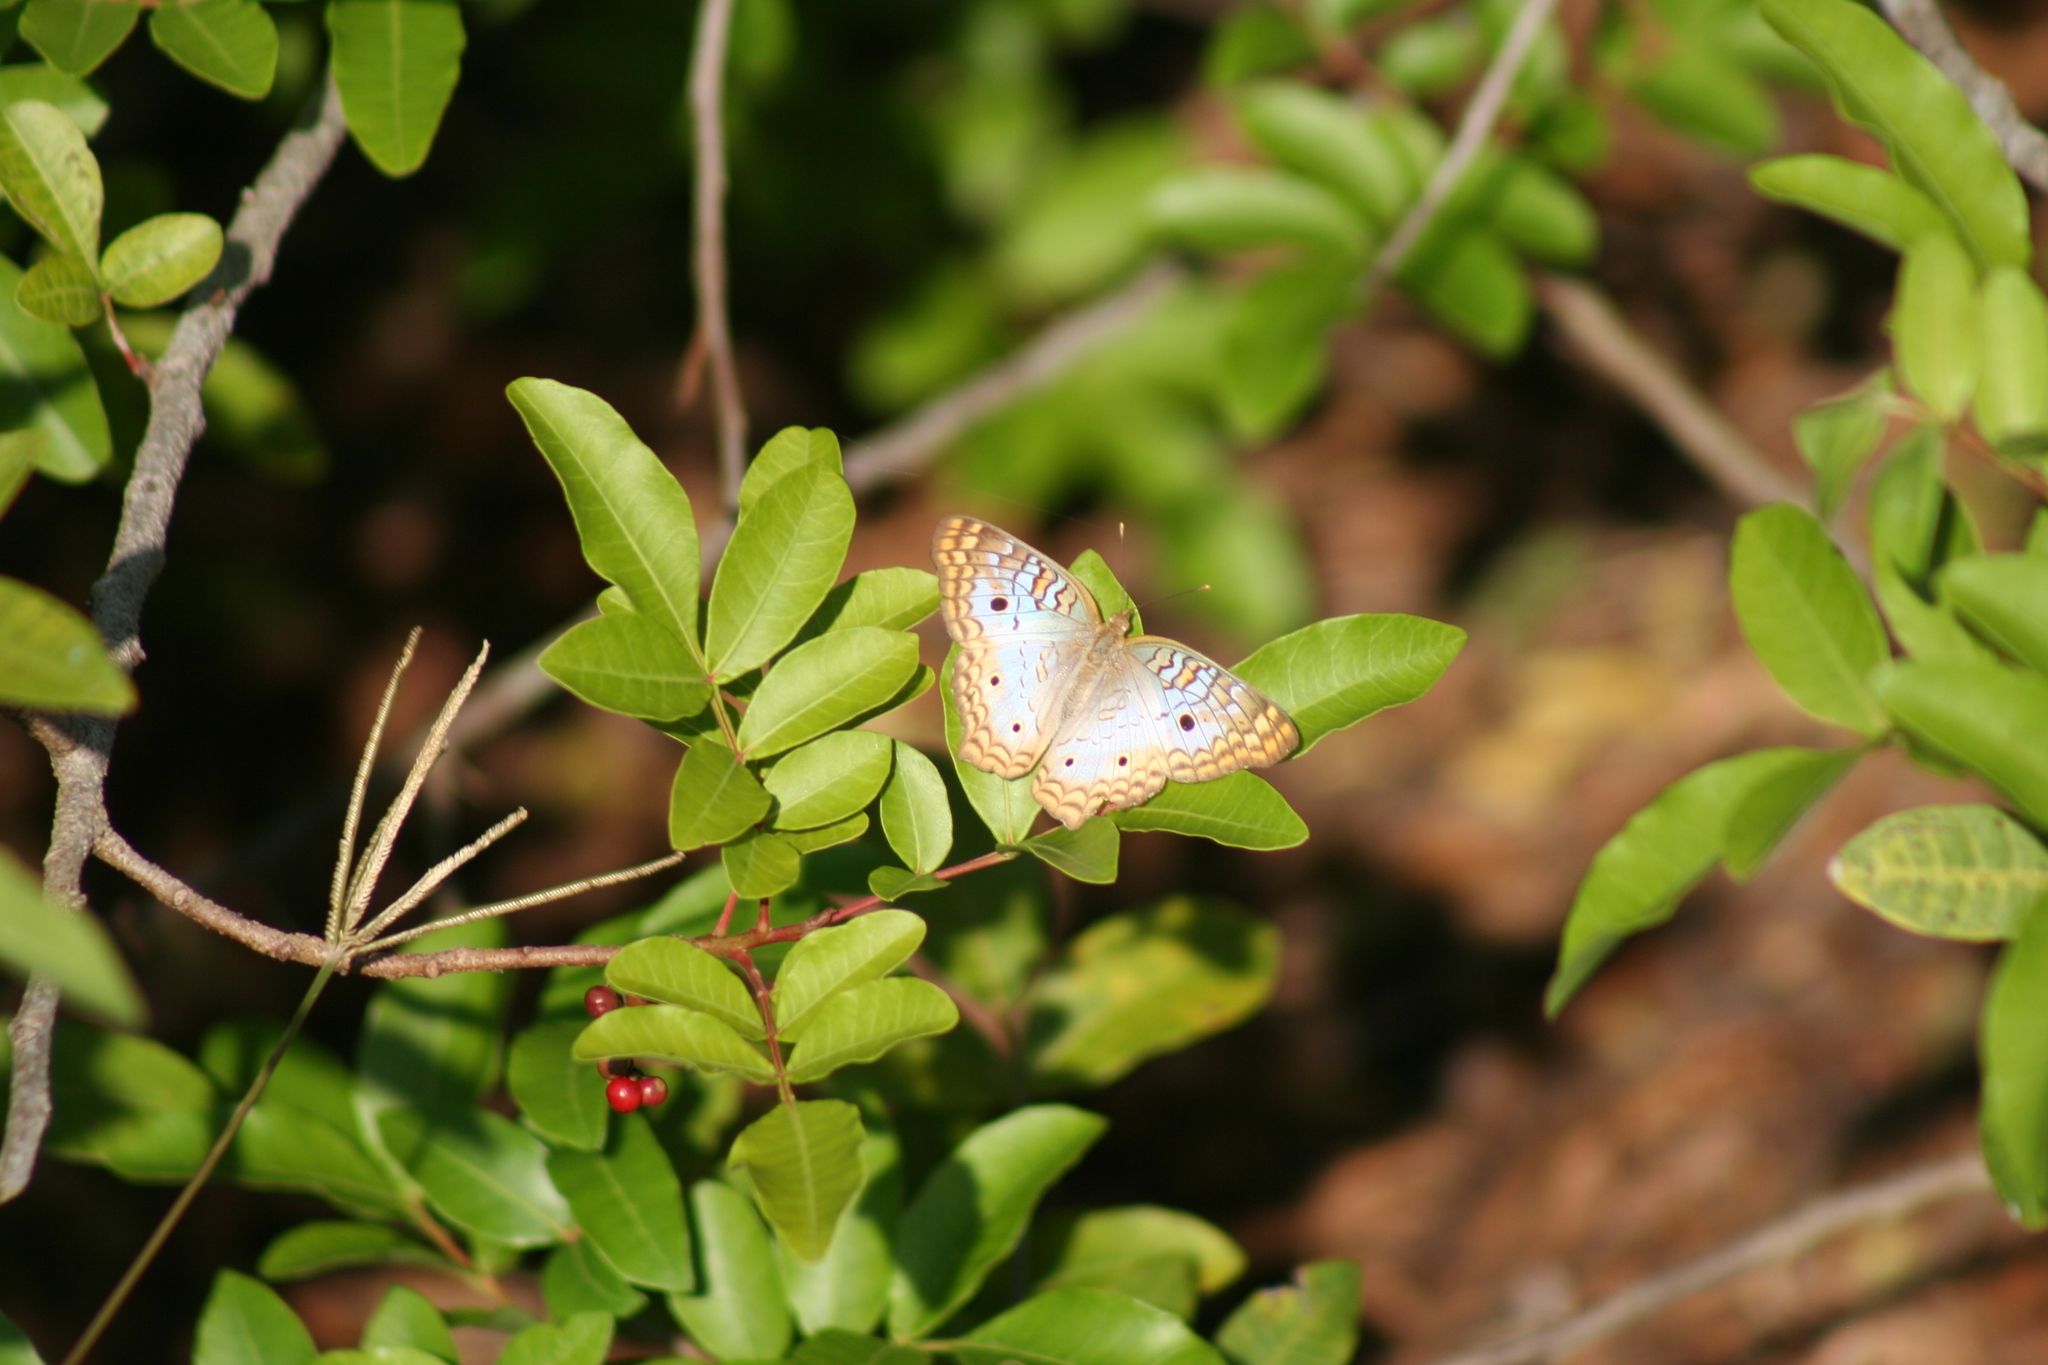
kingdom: Animalia
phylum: Arthropoda
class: Insecta
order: Lepidoptera
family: Nymphalidae
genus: Anartia
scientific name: Anartia jatrophae
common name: White peacock
